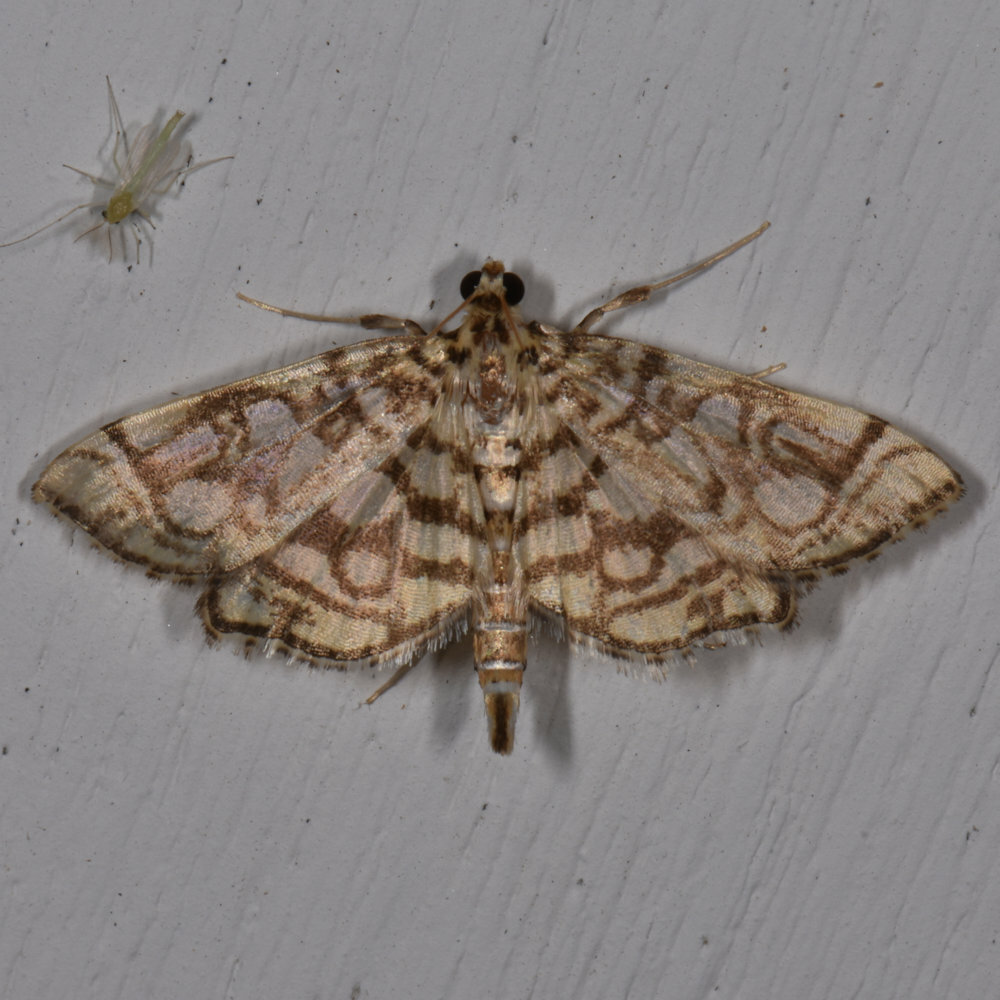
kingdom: Animalia
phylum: Arthropoda
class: Insecta
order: Lepidoptera
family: Crambidae
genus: Lygropia
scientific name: Lygropia rivulalis
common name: Bog lygropia moth
